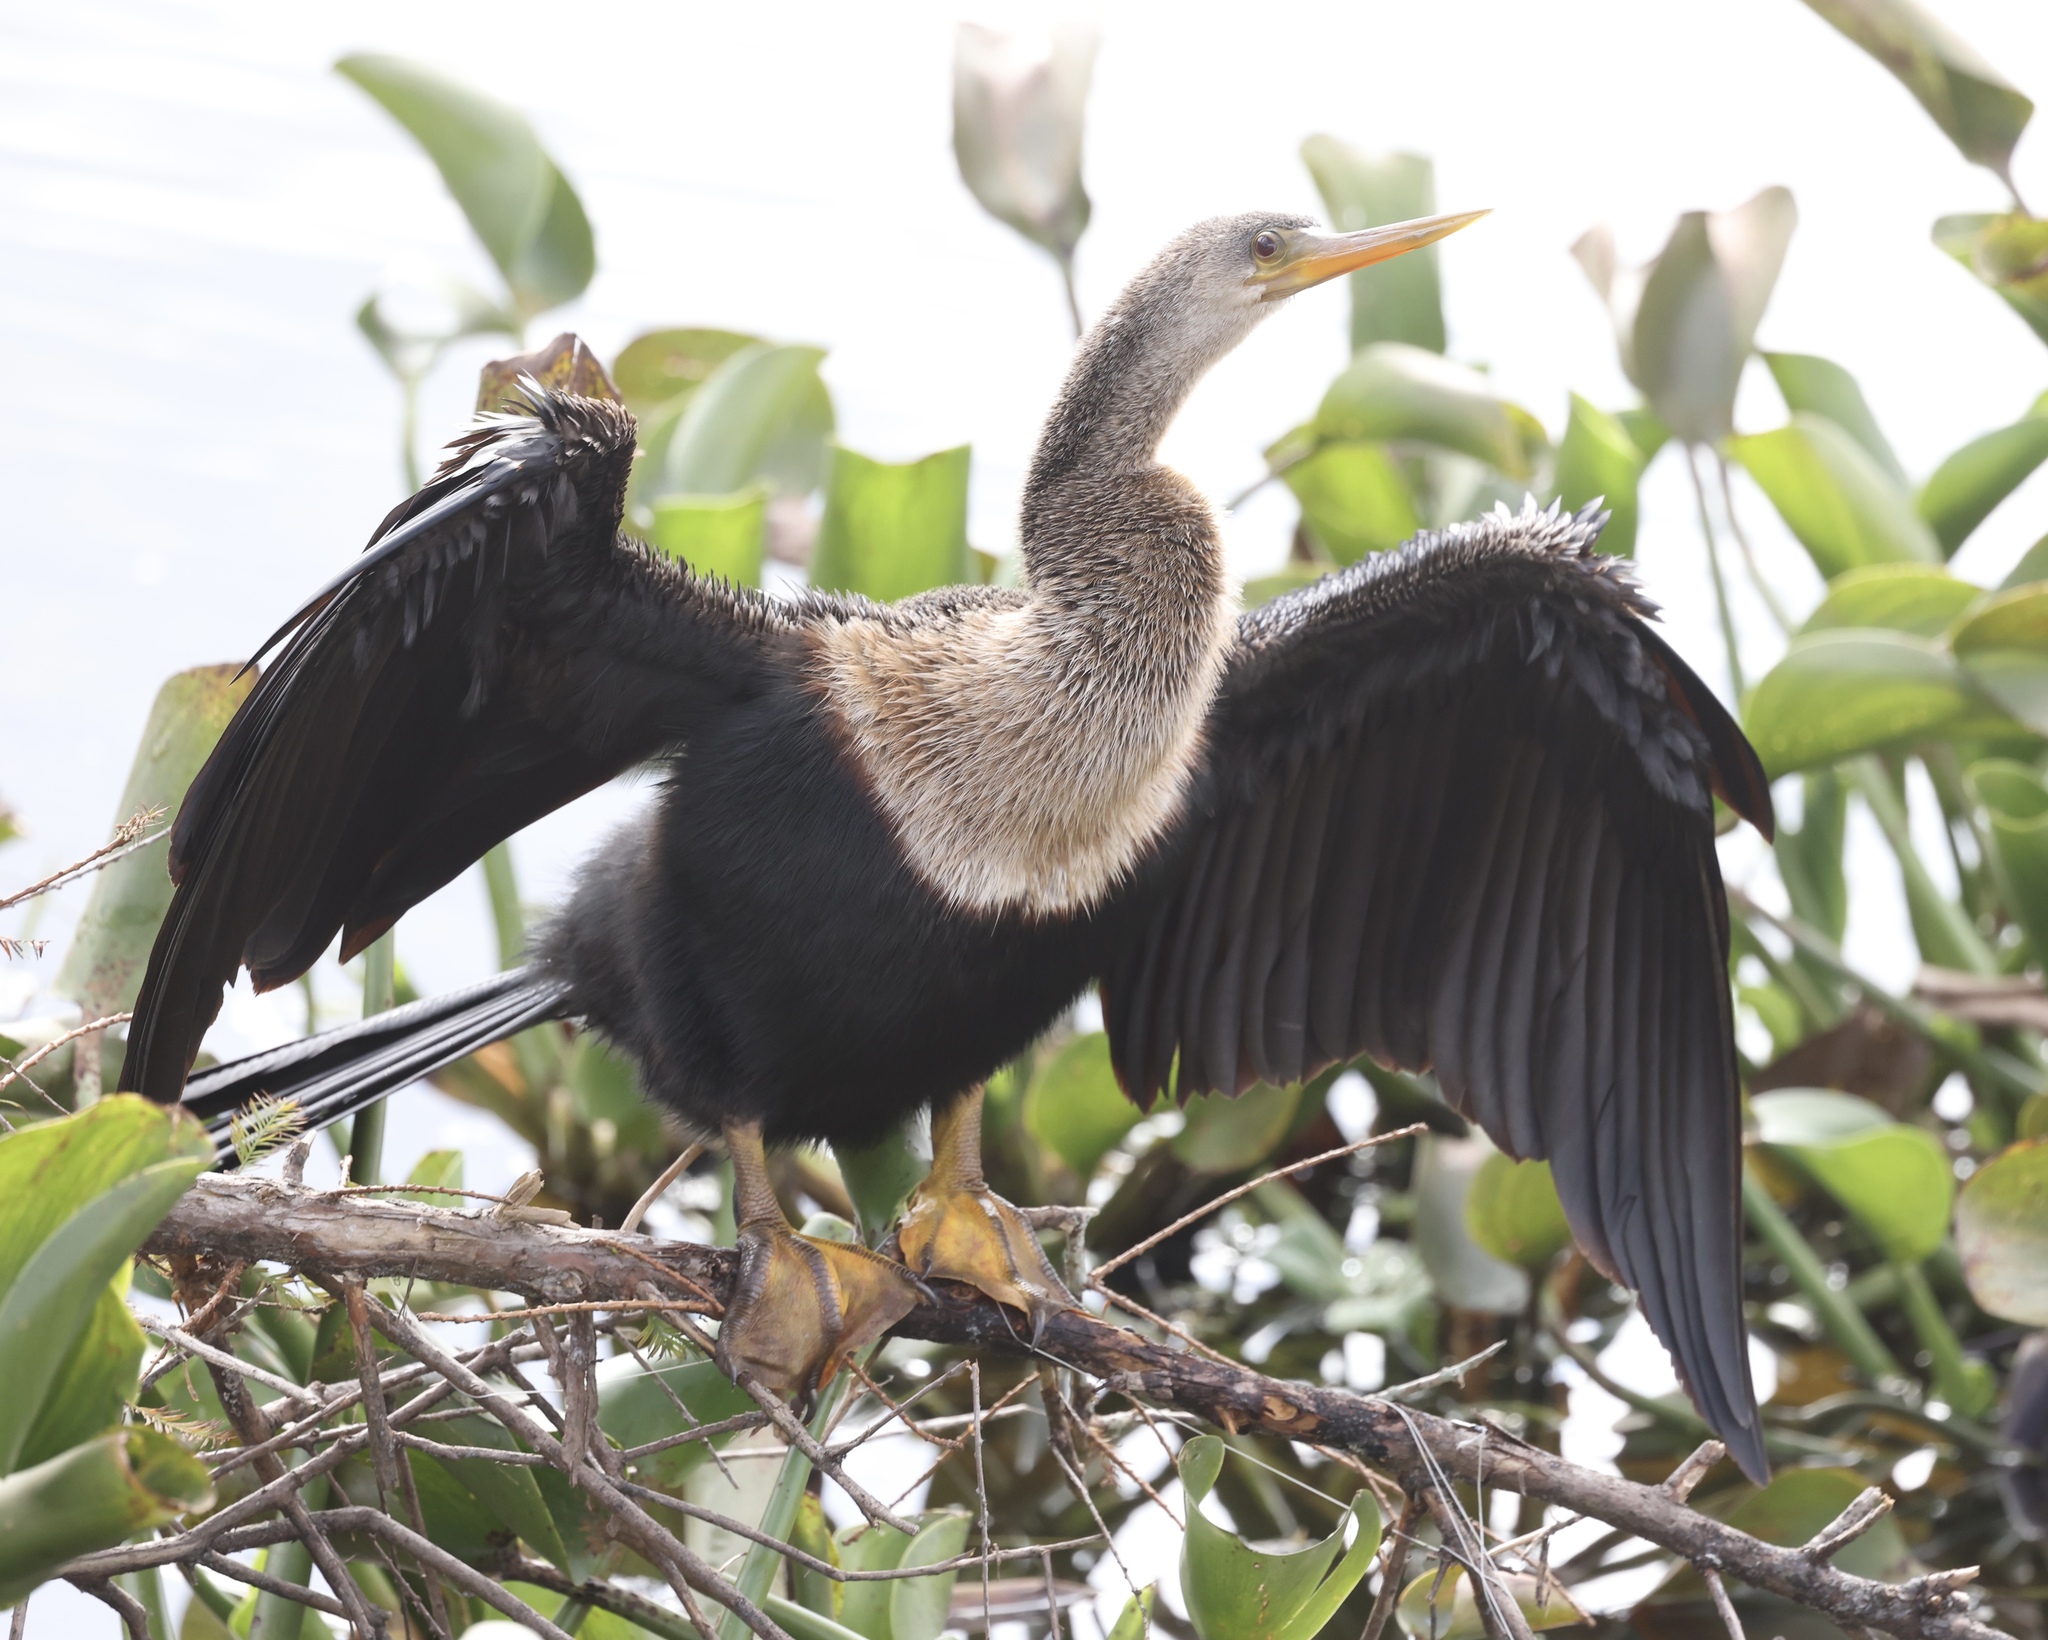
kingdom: Animalia
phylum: Chordata
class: Aves
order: Suliformes
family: Anhingidae
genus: Anhinga
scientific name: Anhinga anhinga
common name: Anhinga
